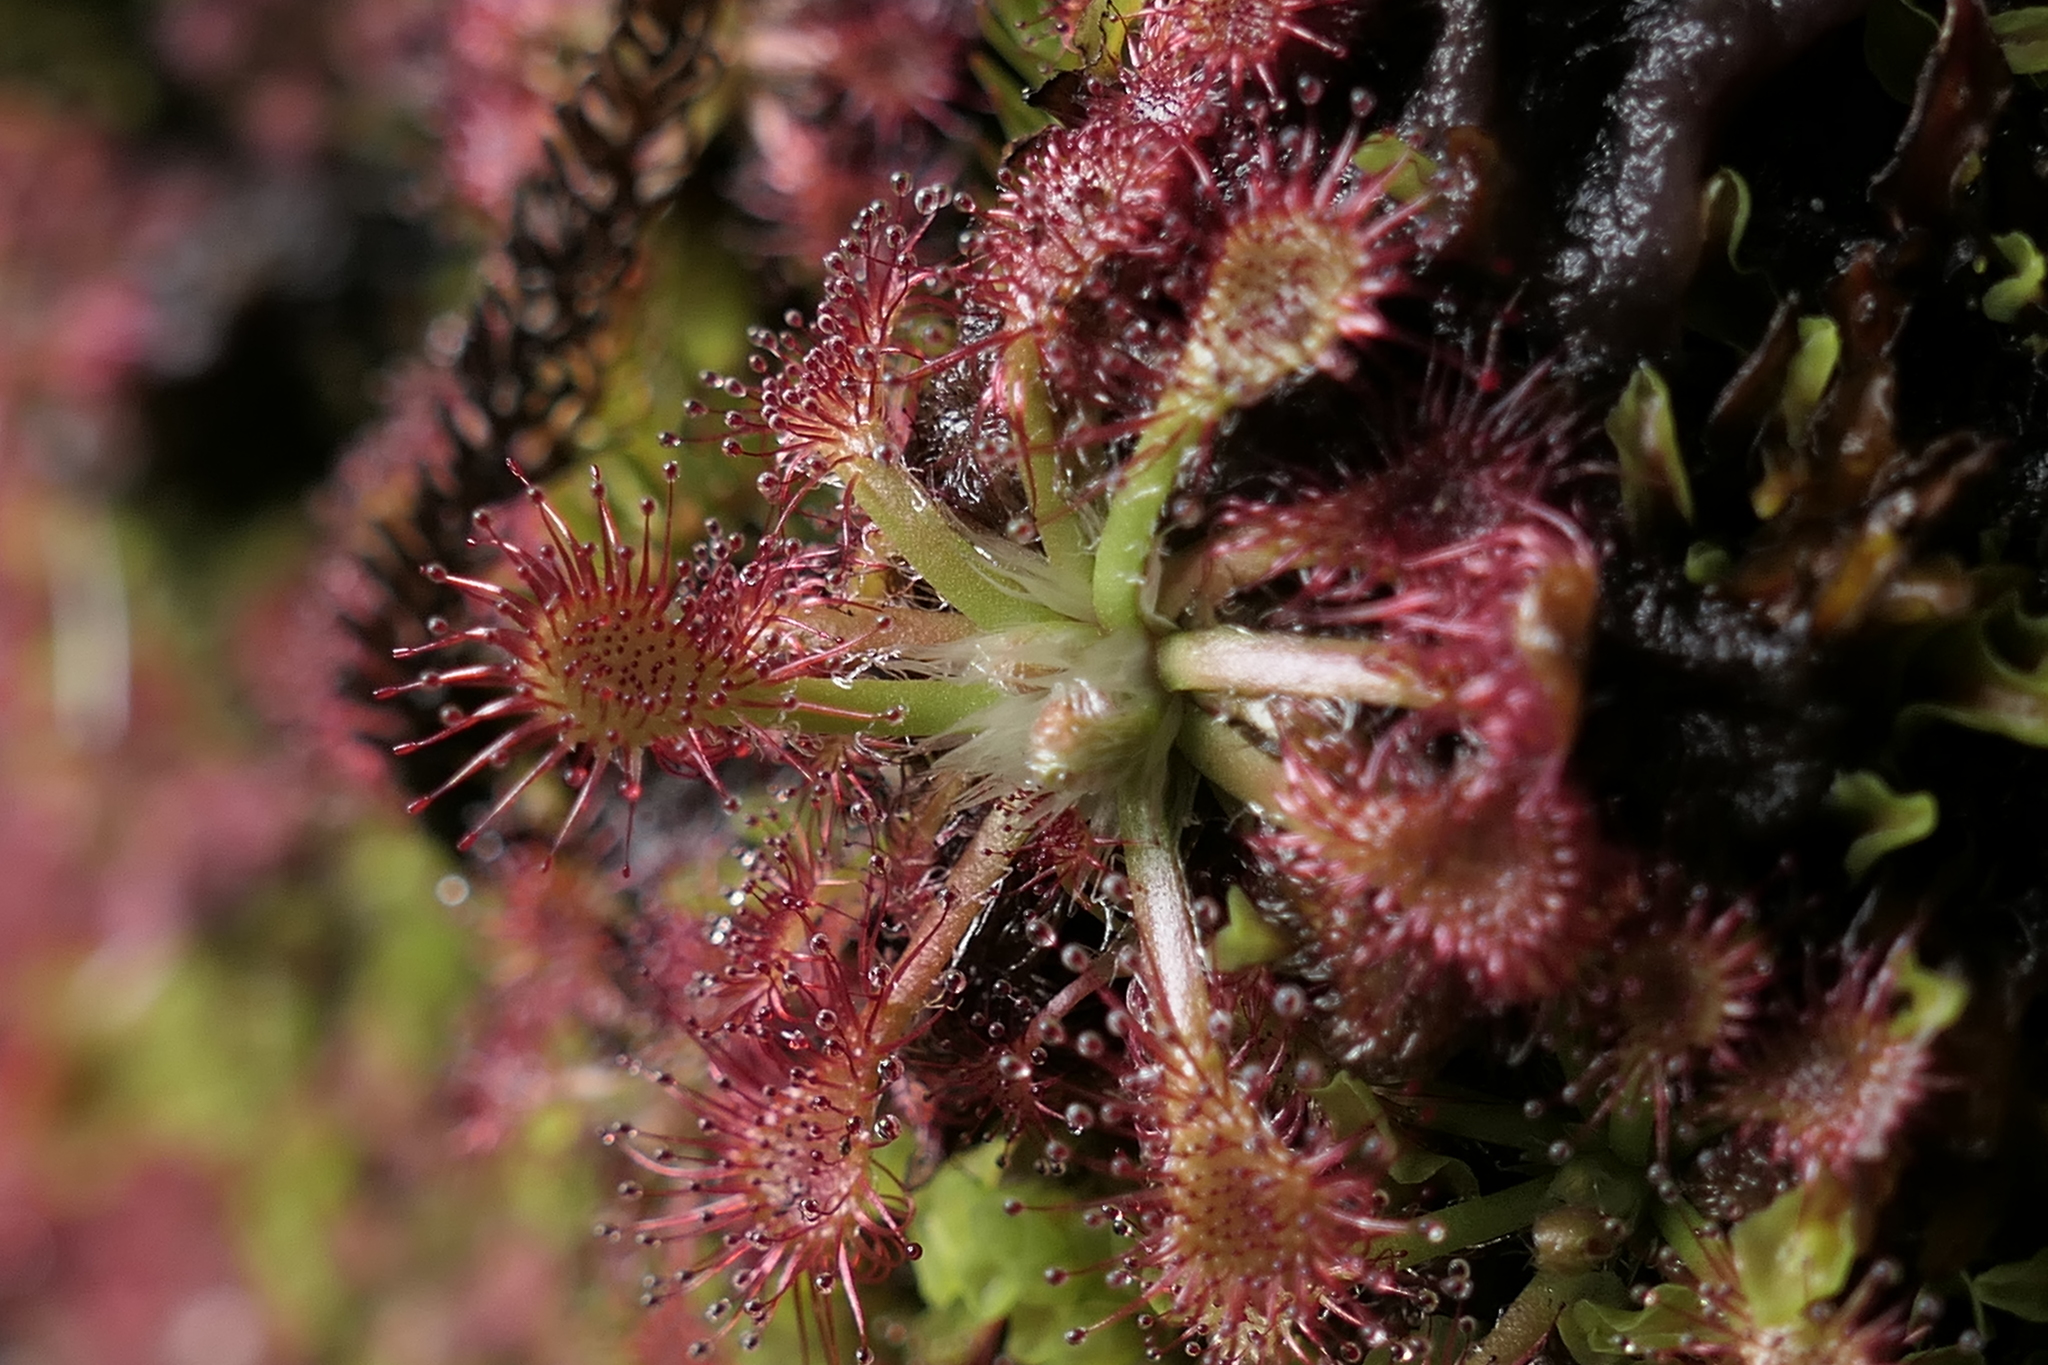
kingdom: Plantae
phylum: Tracheophyta
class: Magnoliopsida
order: Caryophyllales
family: Droseraceae
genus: Drosera
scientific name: Drosera spatulata
